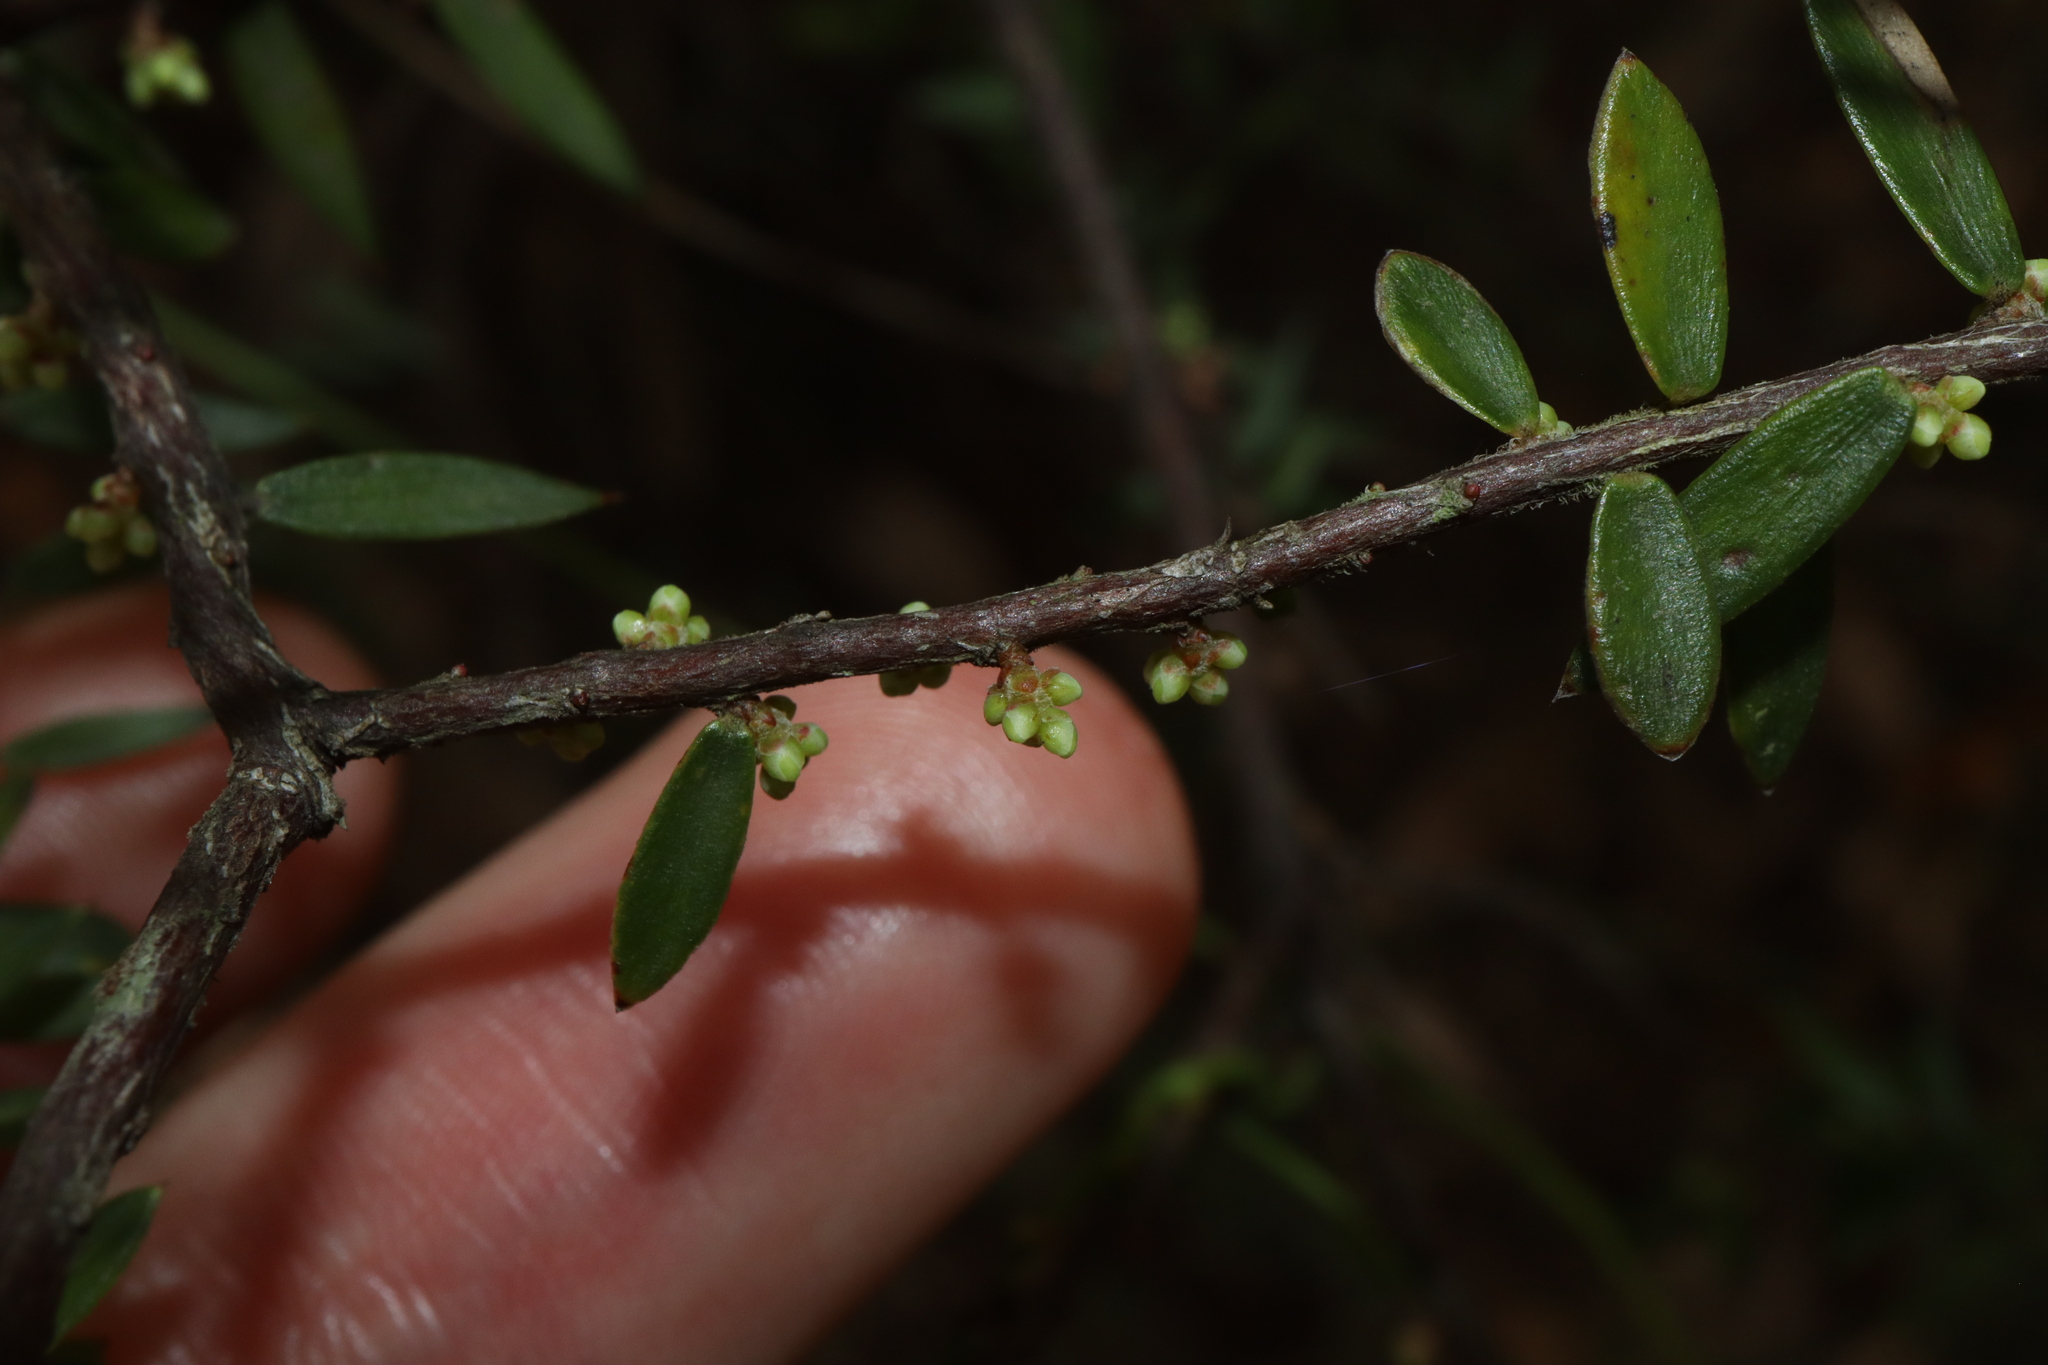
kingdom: Plantae
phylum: Tracheophyta
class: Magnoliopsida
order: Ericales
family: Ericaceae
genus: Acrotriche
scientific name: Acrotriche divaricata
